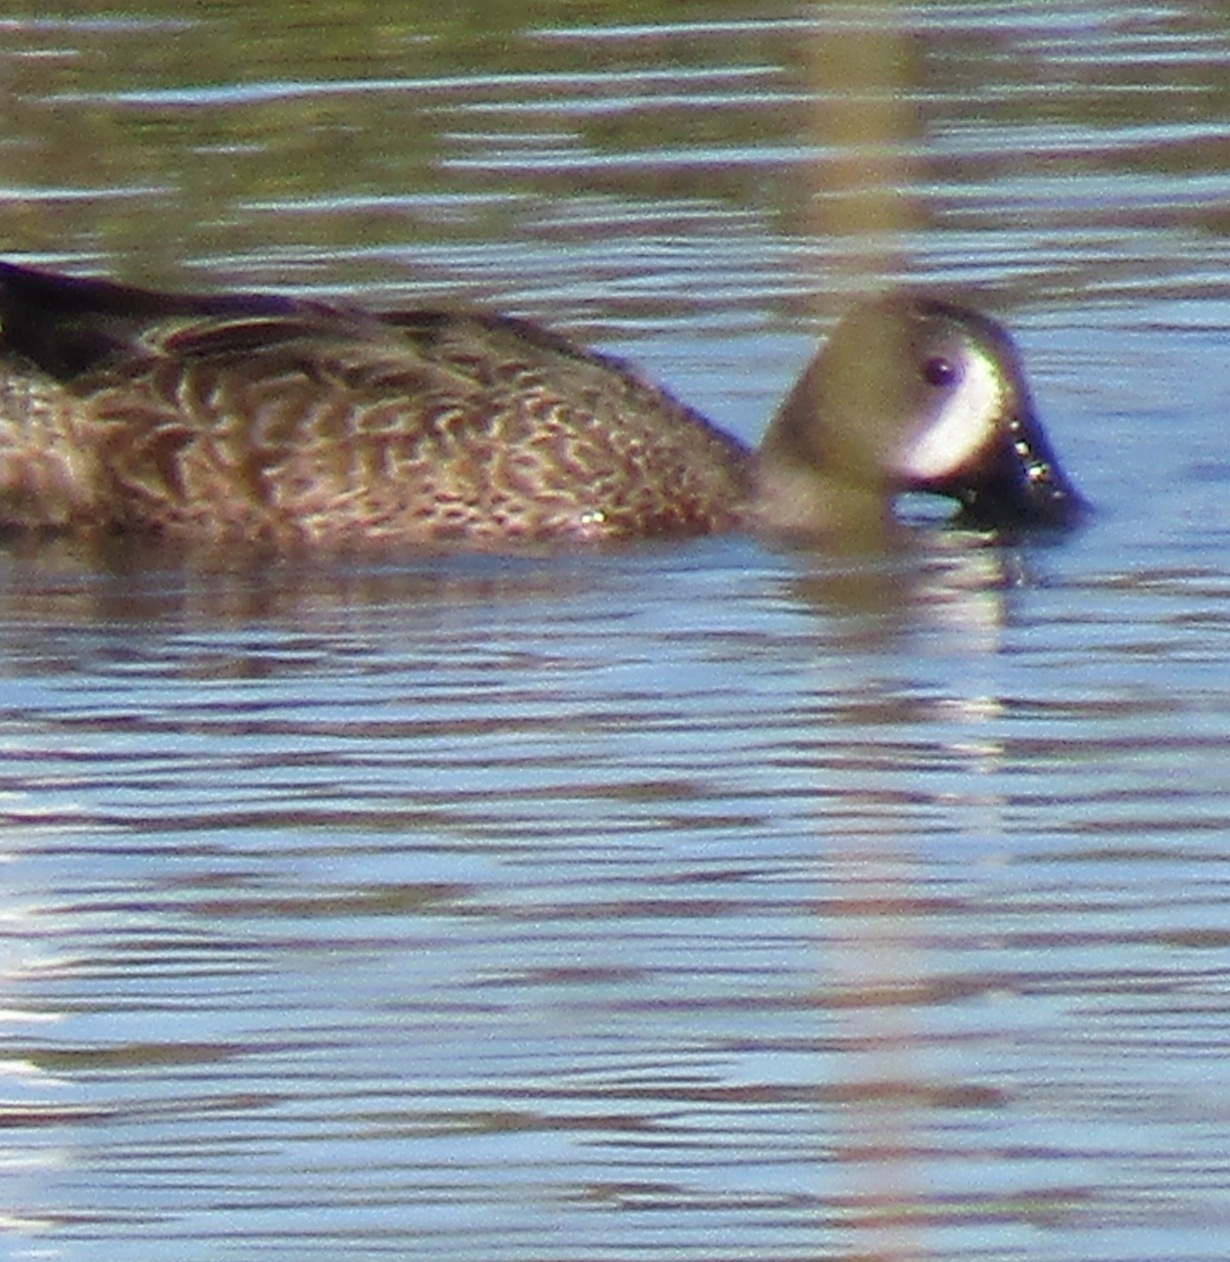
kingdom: Animalia
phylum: Chordata
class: Aves
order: Anseriformes
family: Anatidae
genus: Spatula
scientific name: Spatula discors
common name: Blue-winged teal
